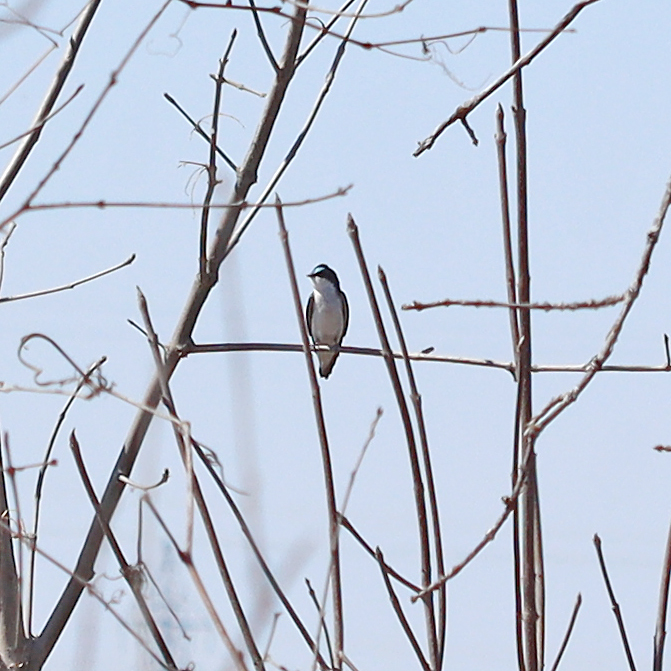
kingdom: Animalia
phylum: Chordata
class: Aves
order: Passeriformes
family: Hirundinidae
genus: Tachycineta
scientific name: Tachycineta bicolor
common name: Tree swallow
